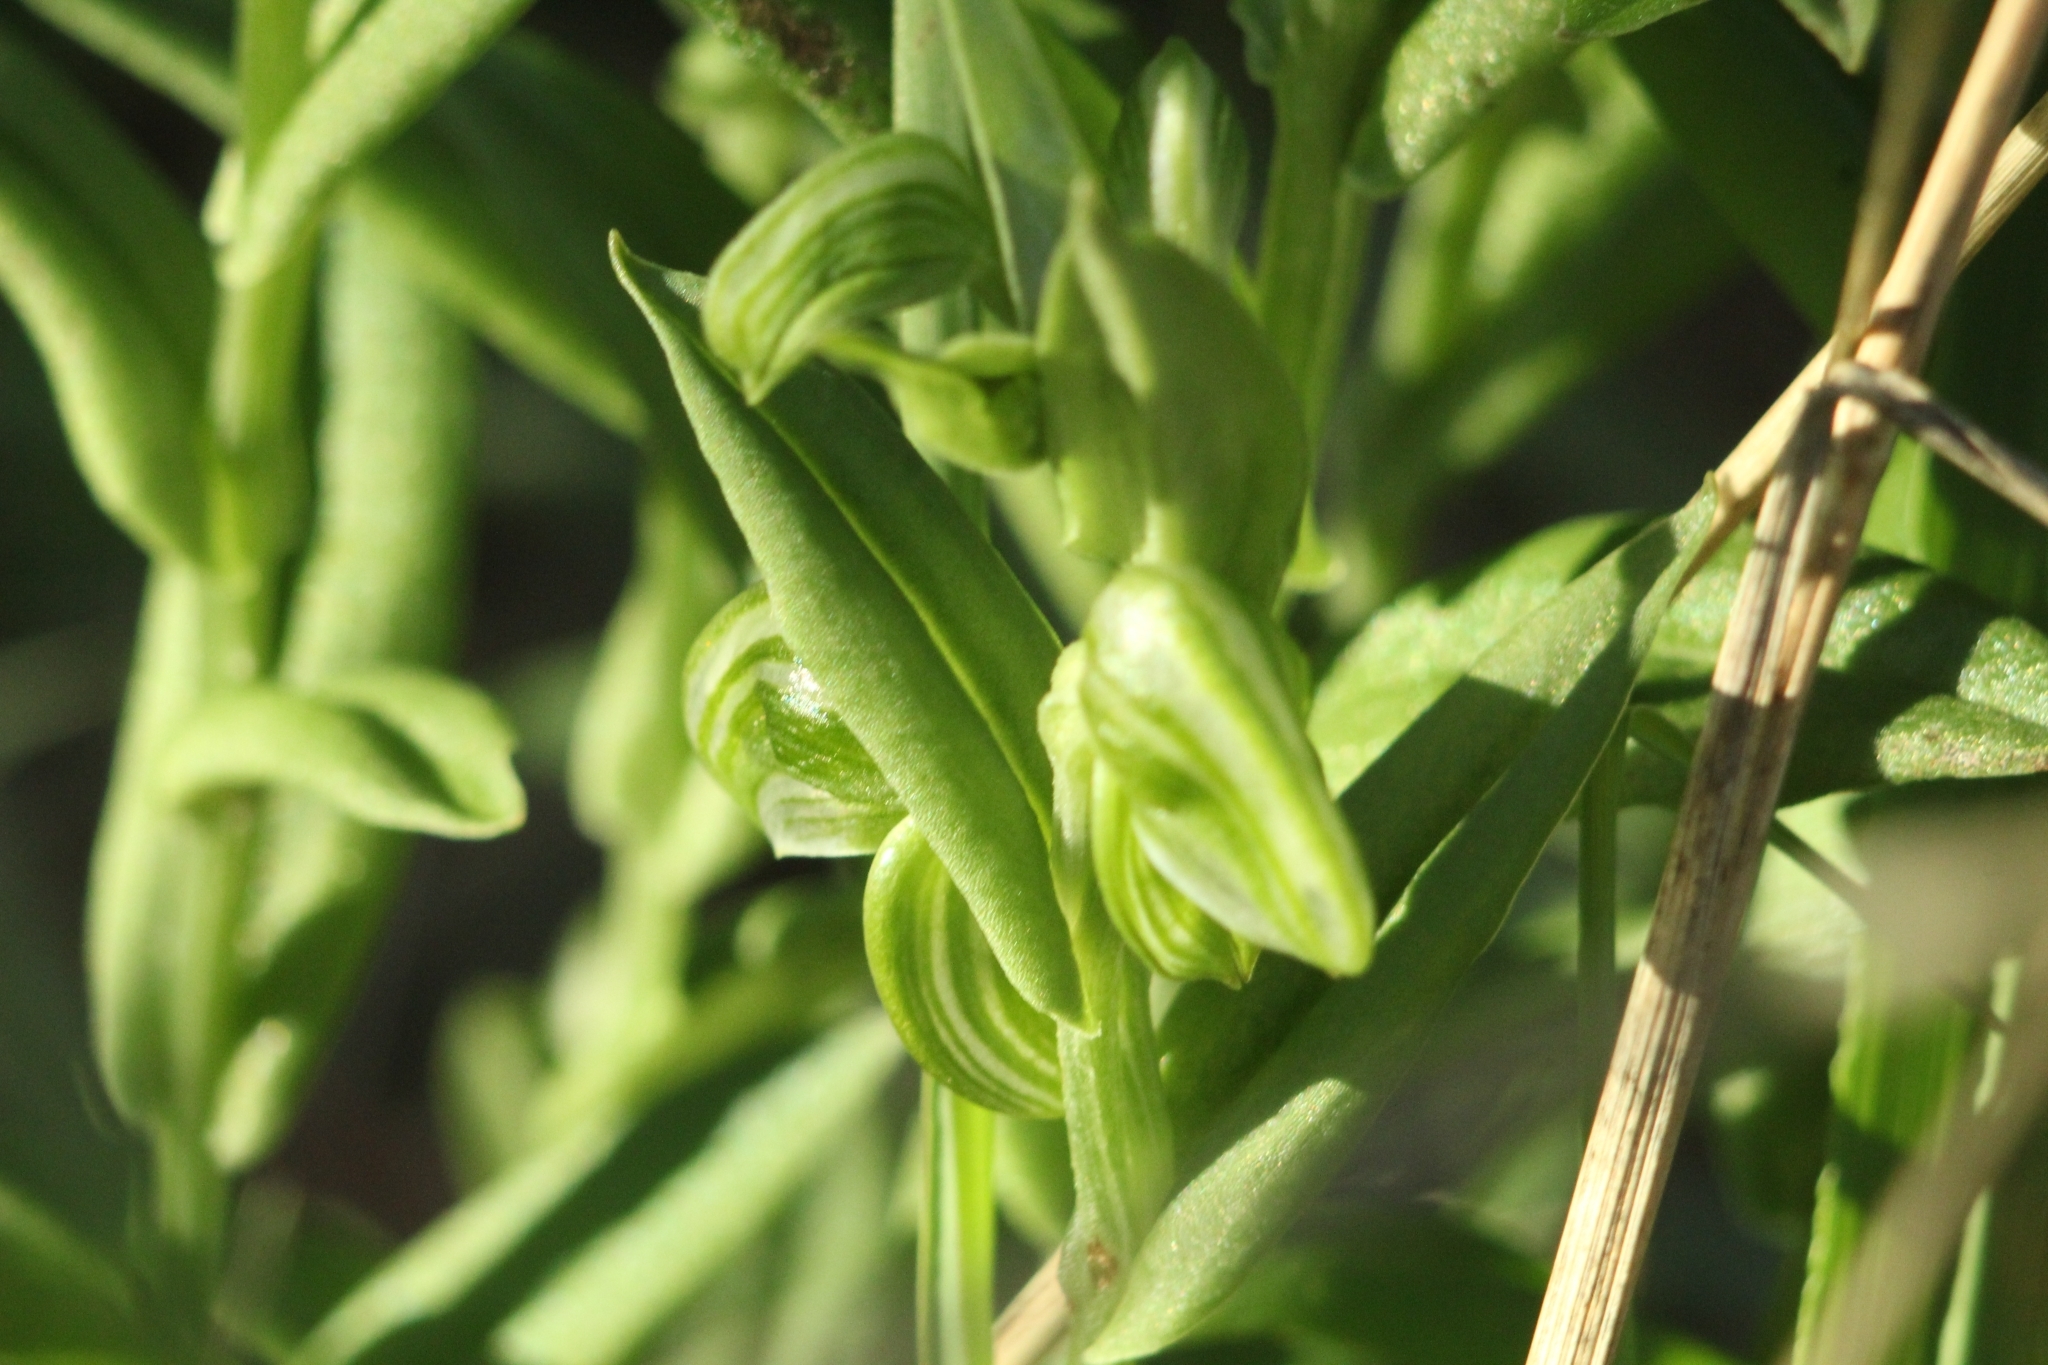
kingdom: Plantae
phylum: Tracheophyta
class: Liliopsida
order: Asparagales
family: Orchidaceae
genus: Pterostylis
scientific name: Pterostylis orbiculata
